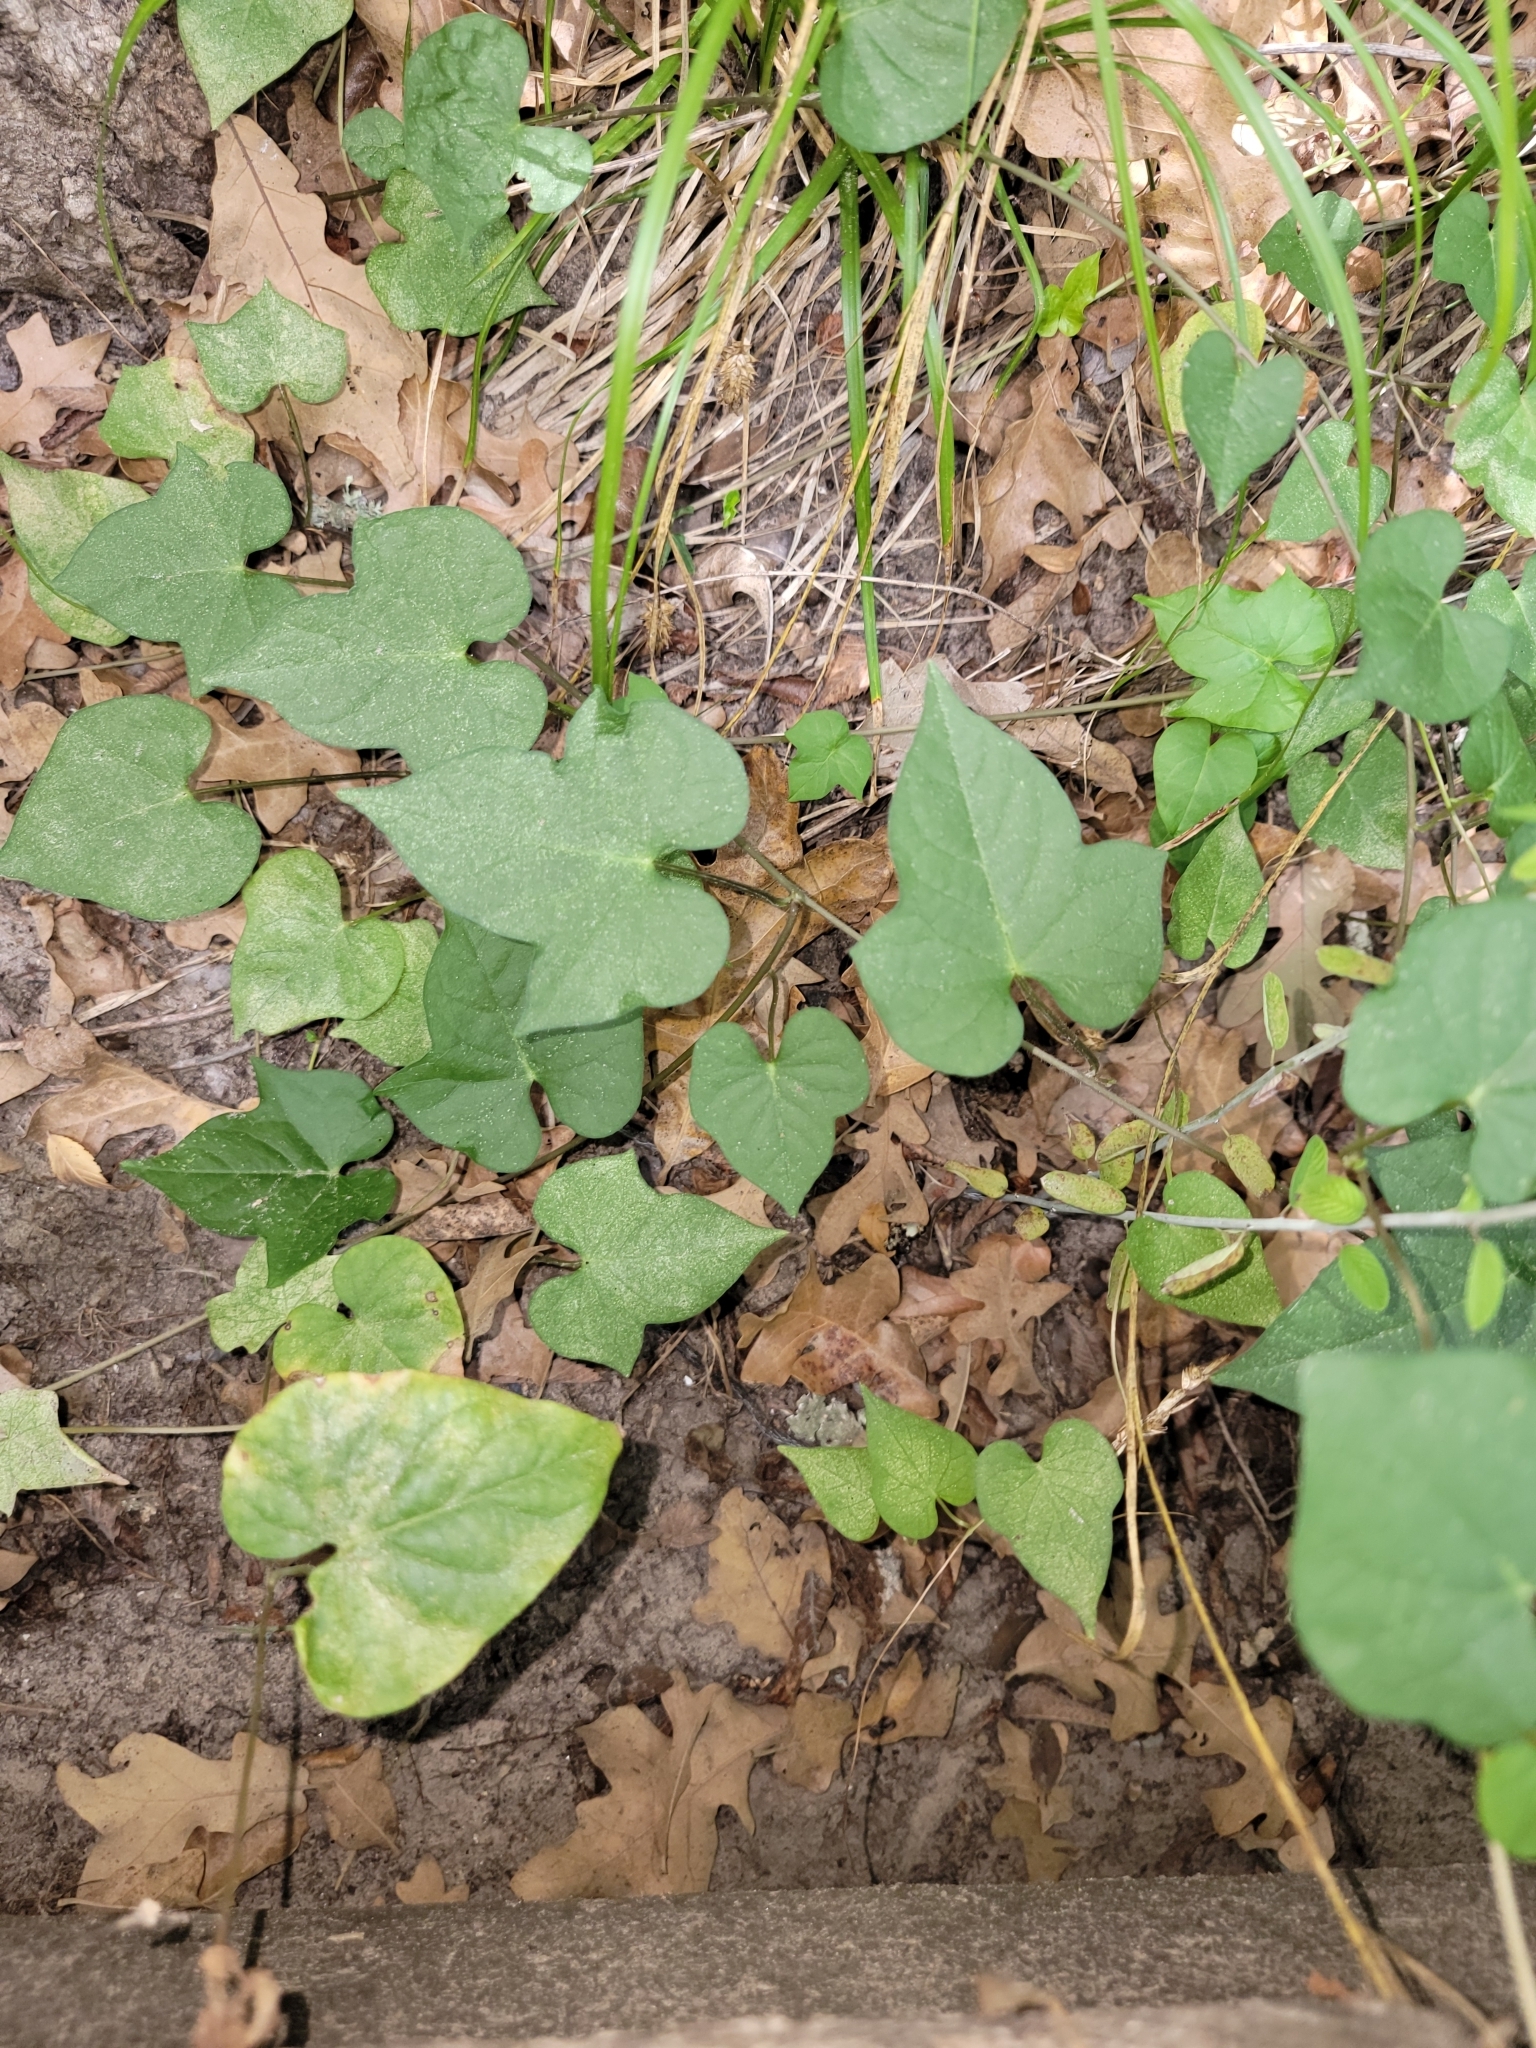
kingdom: Plantae
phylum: Tracheophyta
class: Magnoliopsida
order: Solanales
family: Convolvulaceae
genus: Ipomoea
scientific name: Ipomoea pandurata
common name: Man-of-the-earth
